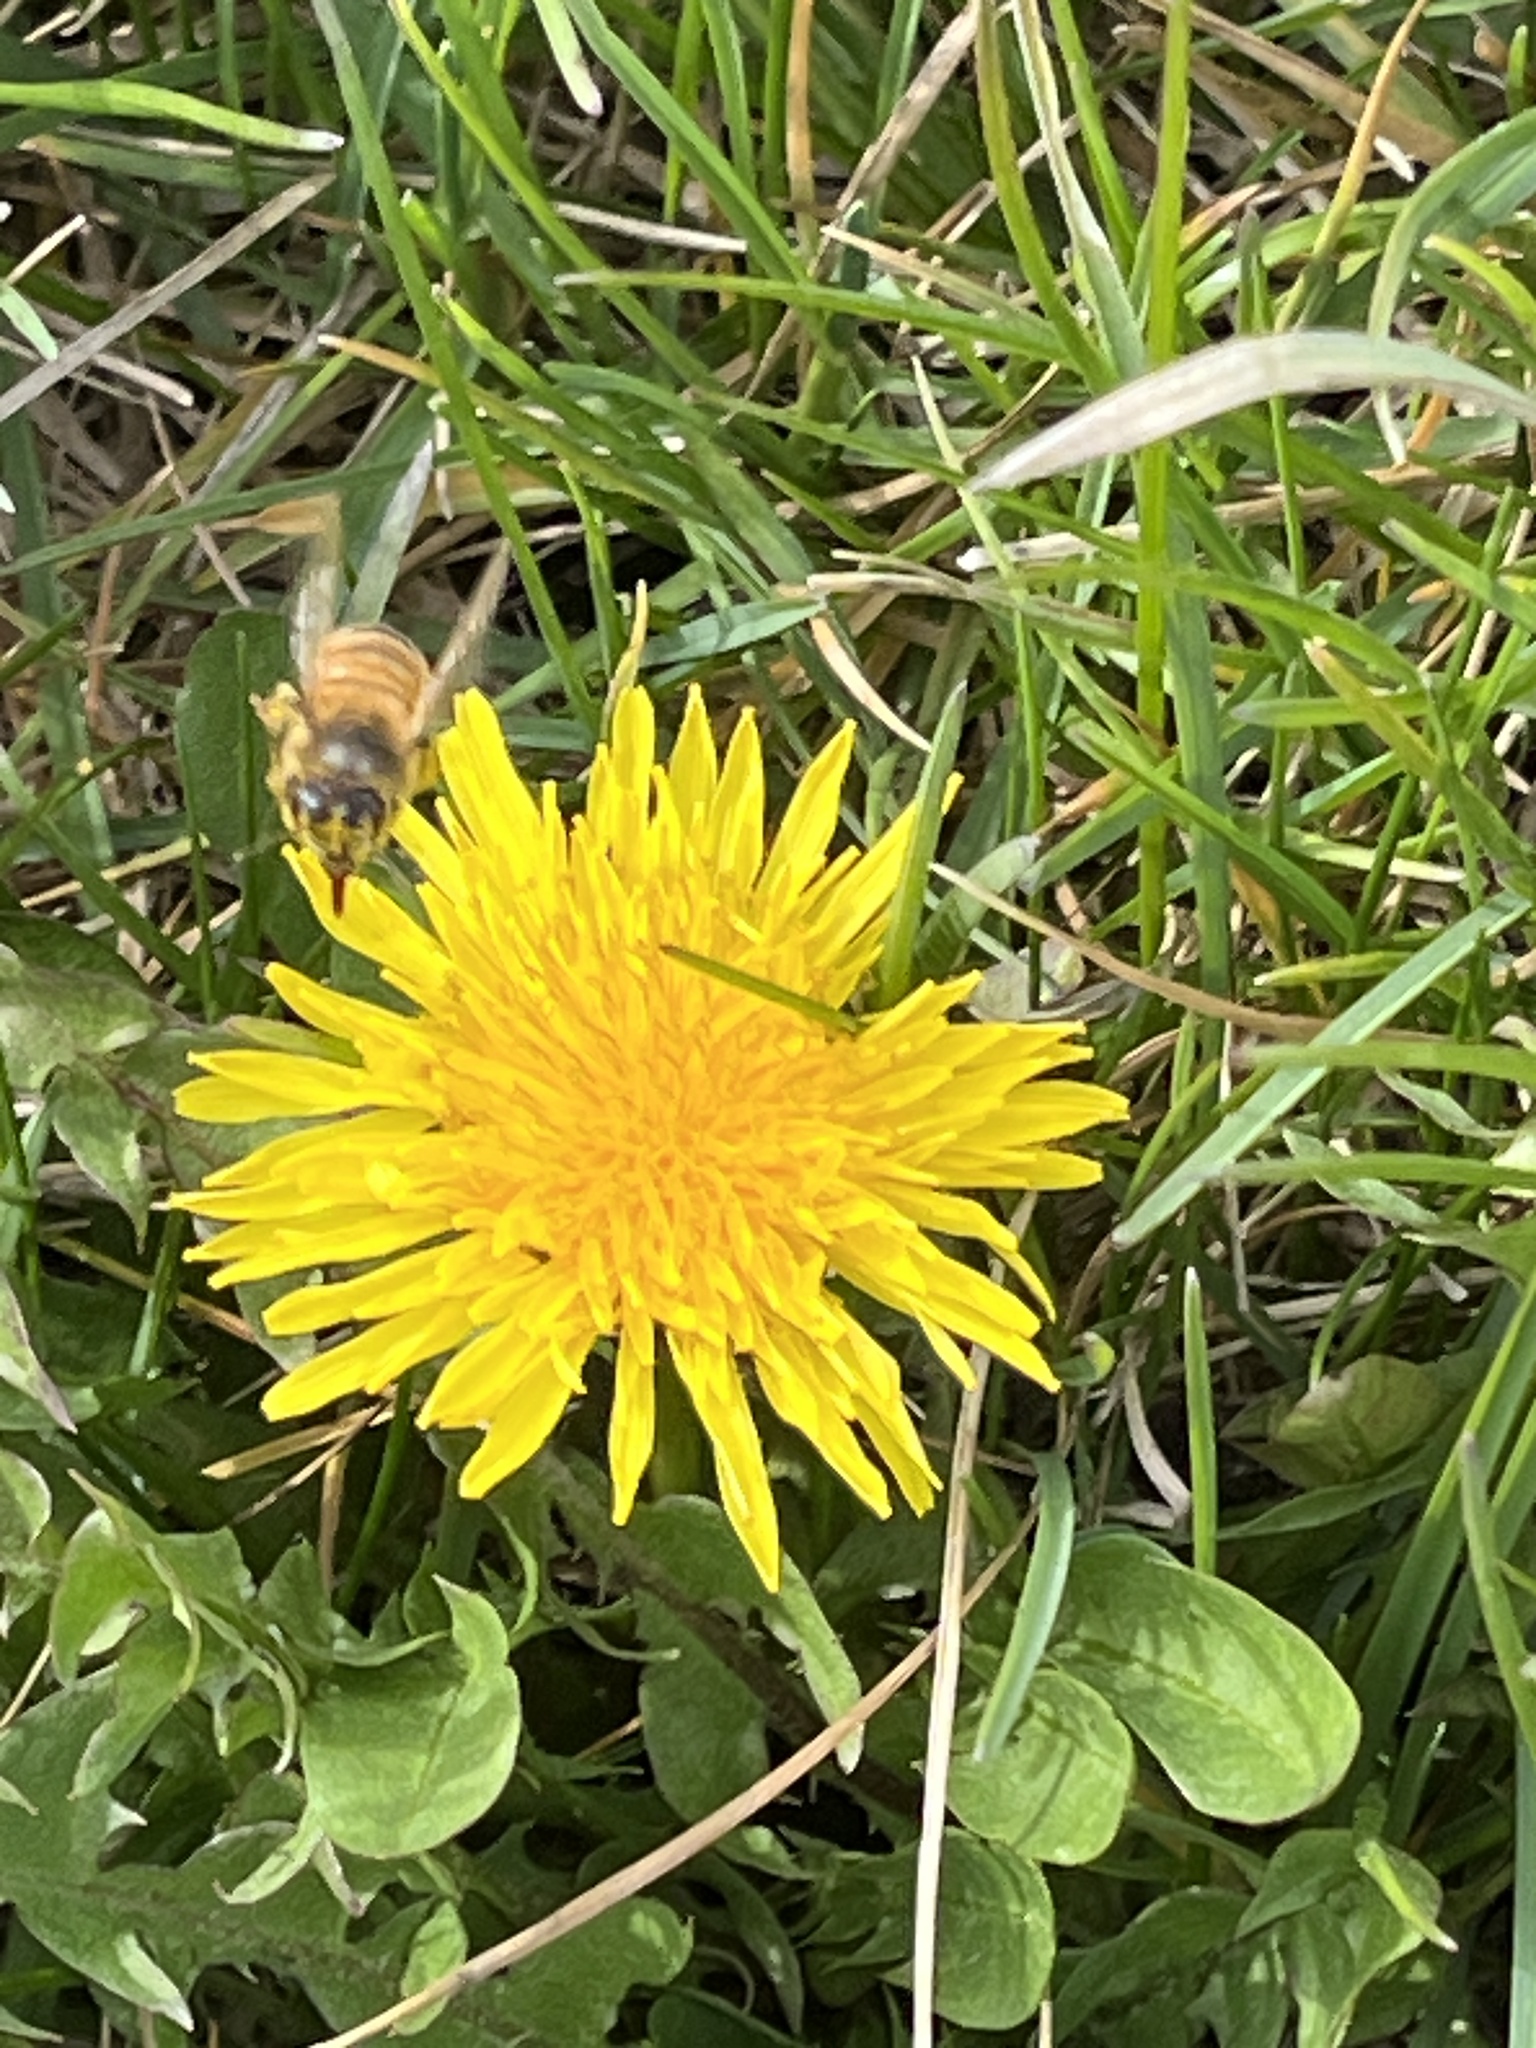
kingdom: Animalia
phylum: Arthropoda
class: Insecta
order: Hymenoptera
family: Apidae
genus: Apis
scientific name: Apis mellifera
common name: Honey bee
